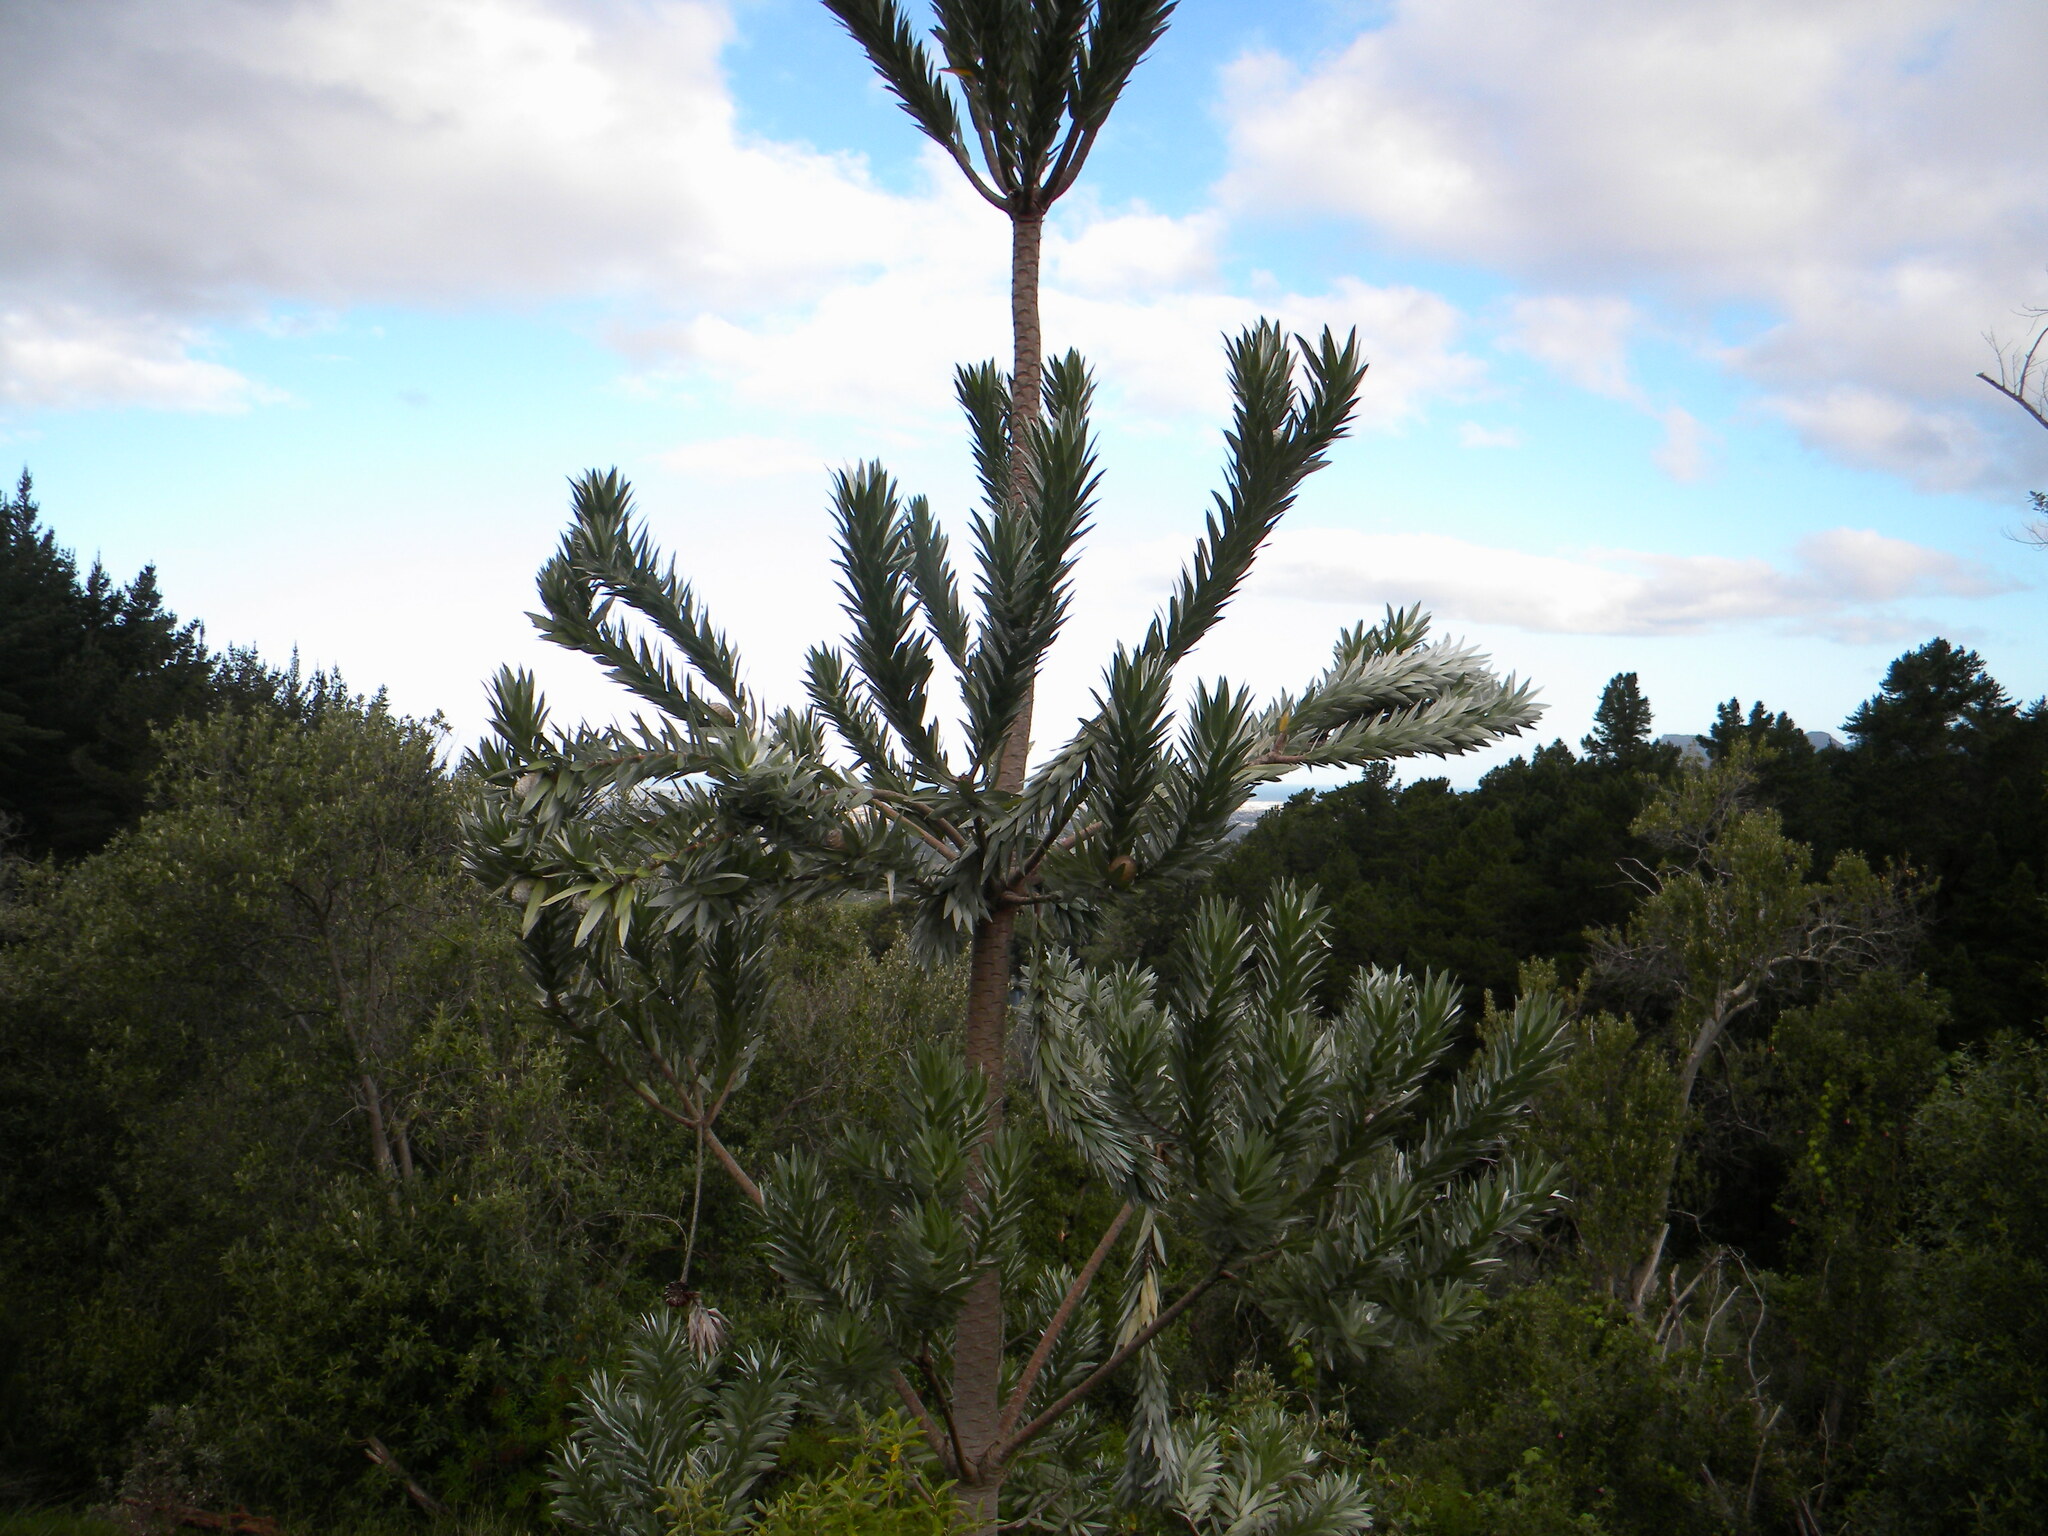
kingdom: Plantae
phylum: Tracheophyta
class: Magnoliopsida
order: Proteales
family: Proteaceae
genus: Leucadendron
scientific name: Leucadendron argenteum
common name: Cape silver tree
